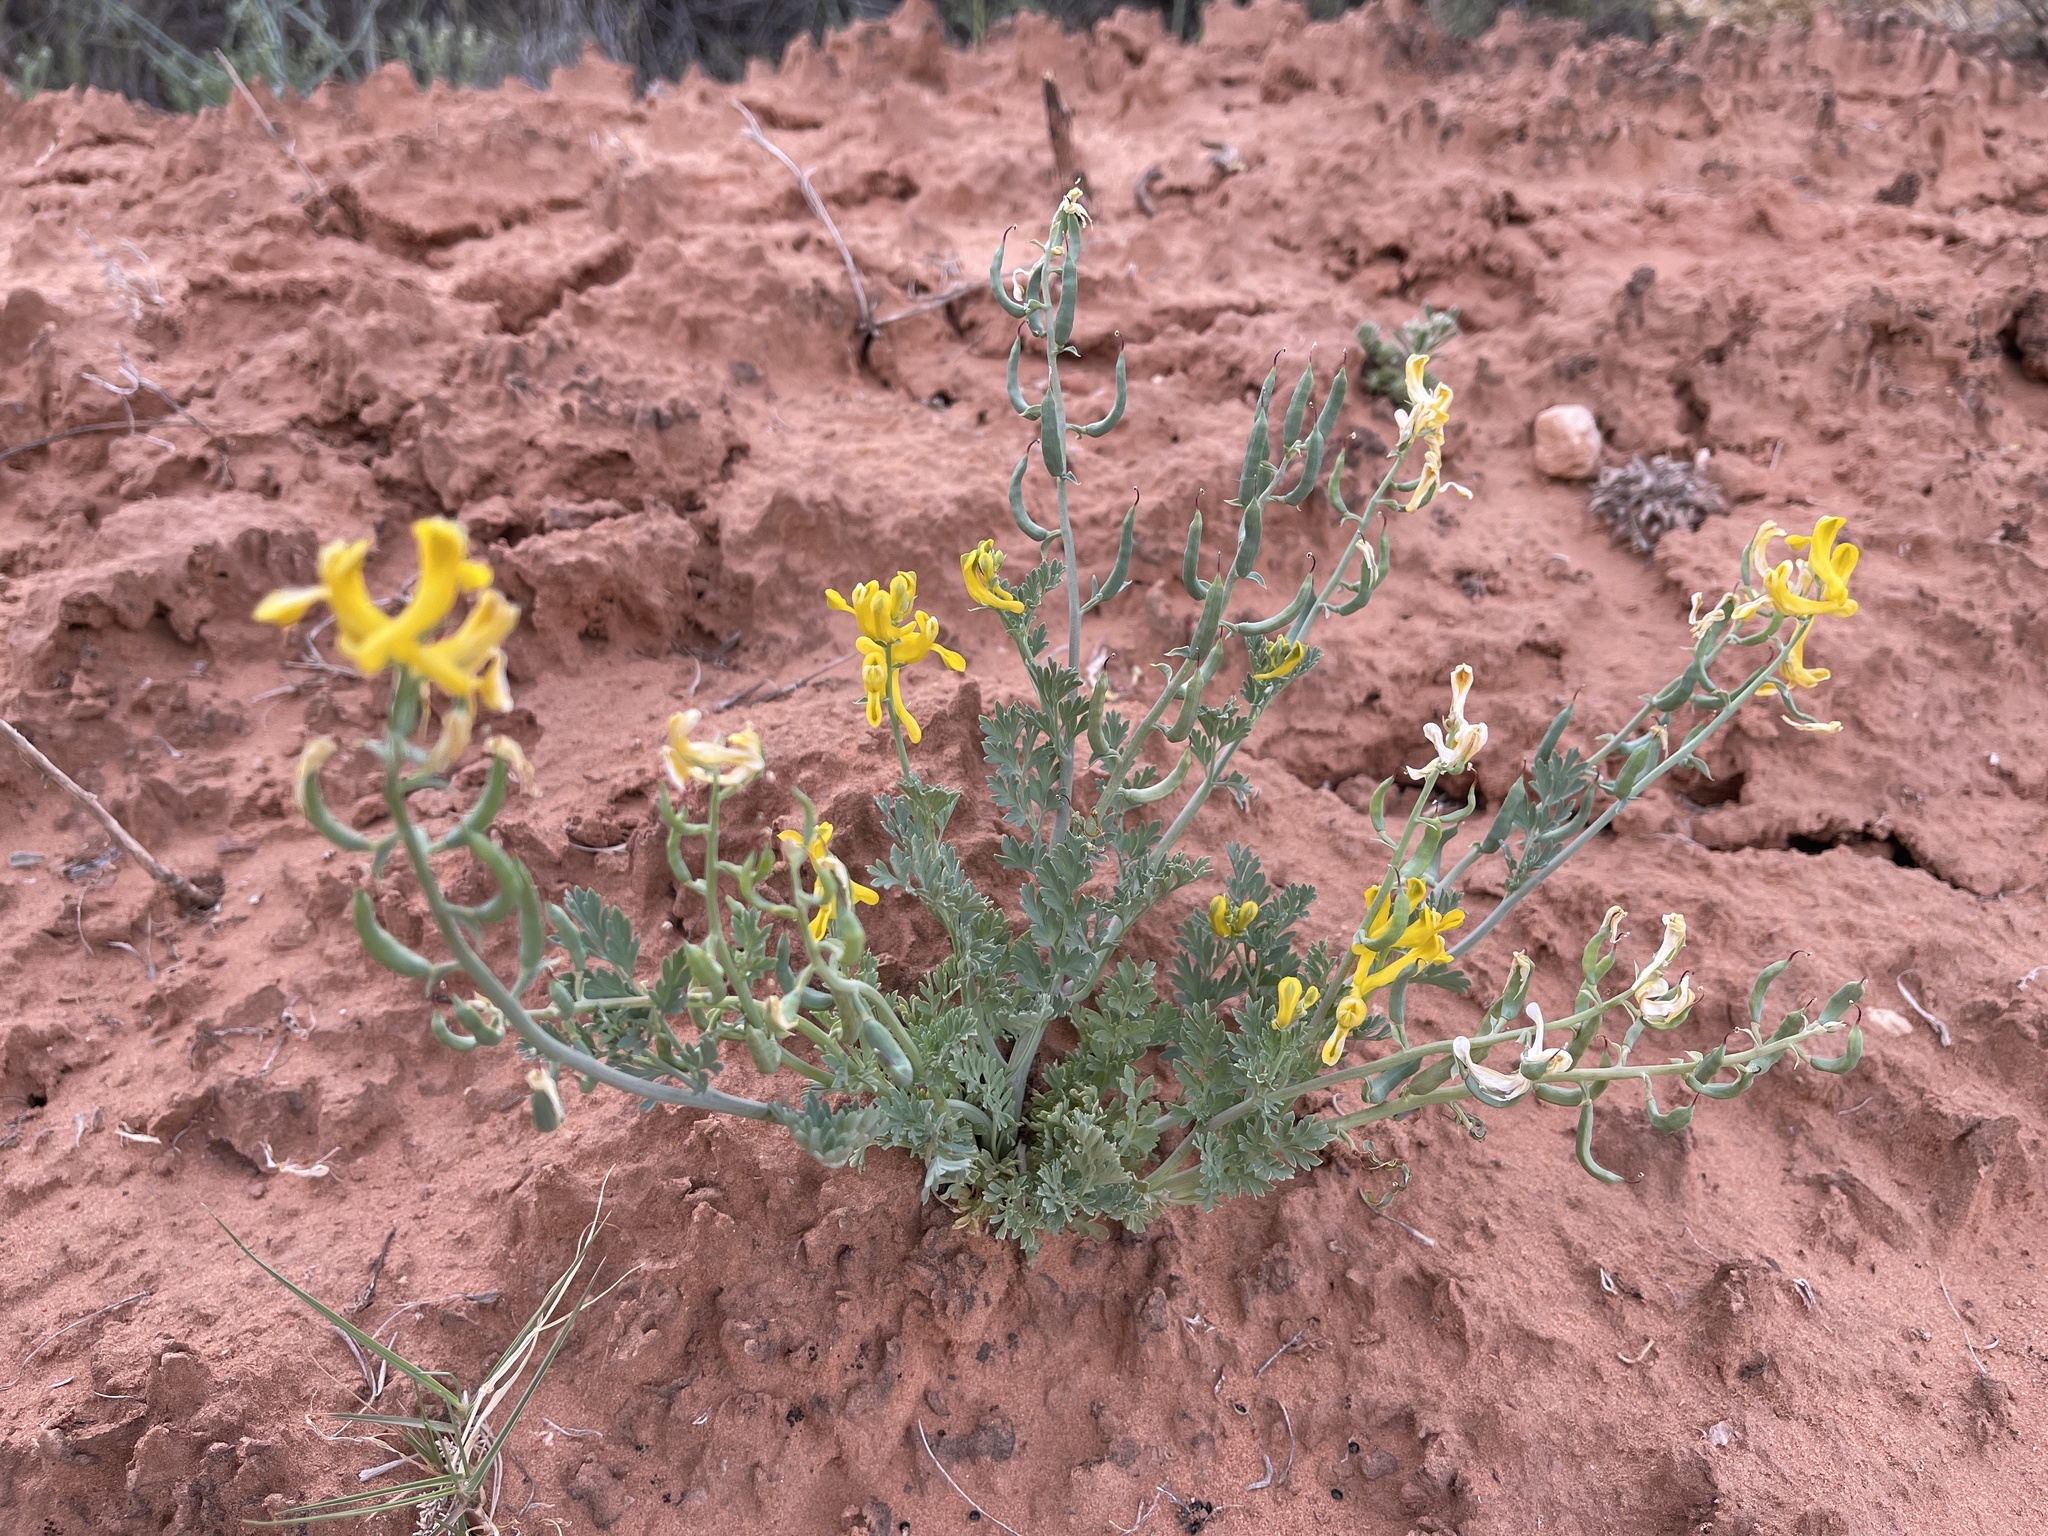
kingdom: Plantae
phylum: Tracheophyta
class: Magnoliopsida
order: Ranunculales
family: Papaveraceae
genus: Corydalis
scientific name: Corydalis aurea
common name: Golden corydalis
